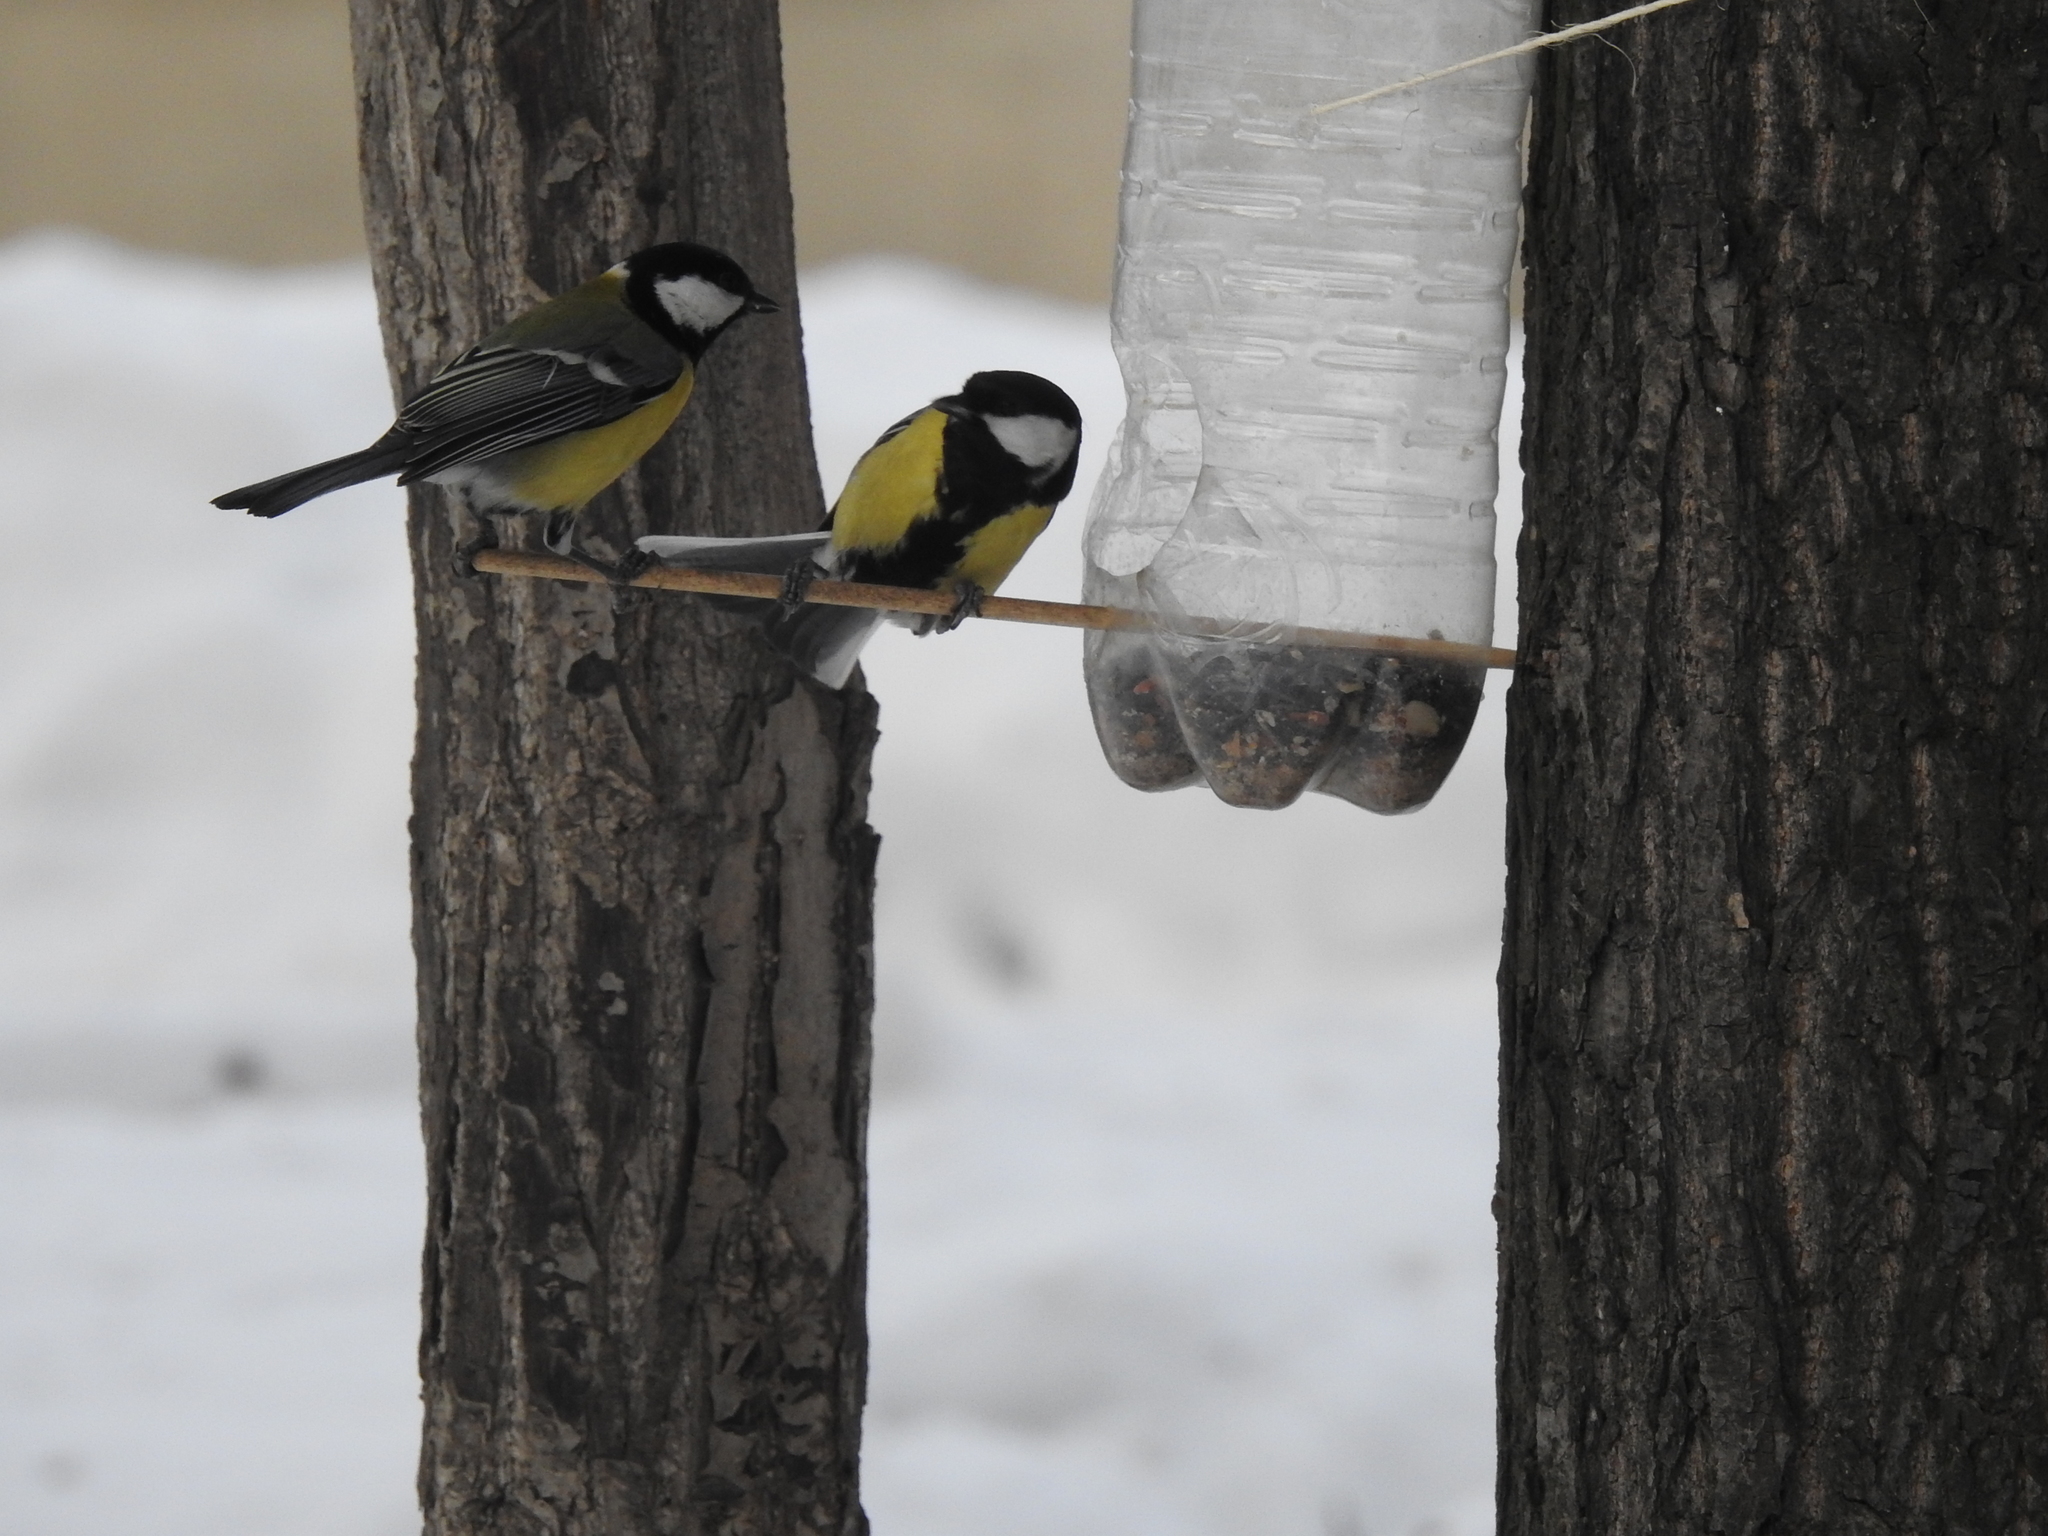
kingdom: Animalia
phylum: Chordata
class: Aves
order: Passeriformes
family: Paridae
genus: Parus
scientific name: Parus major
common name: Great tit
